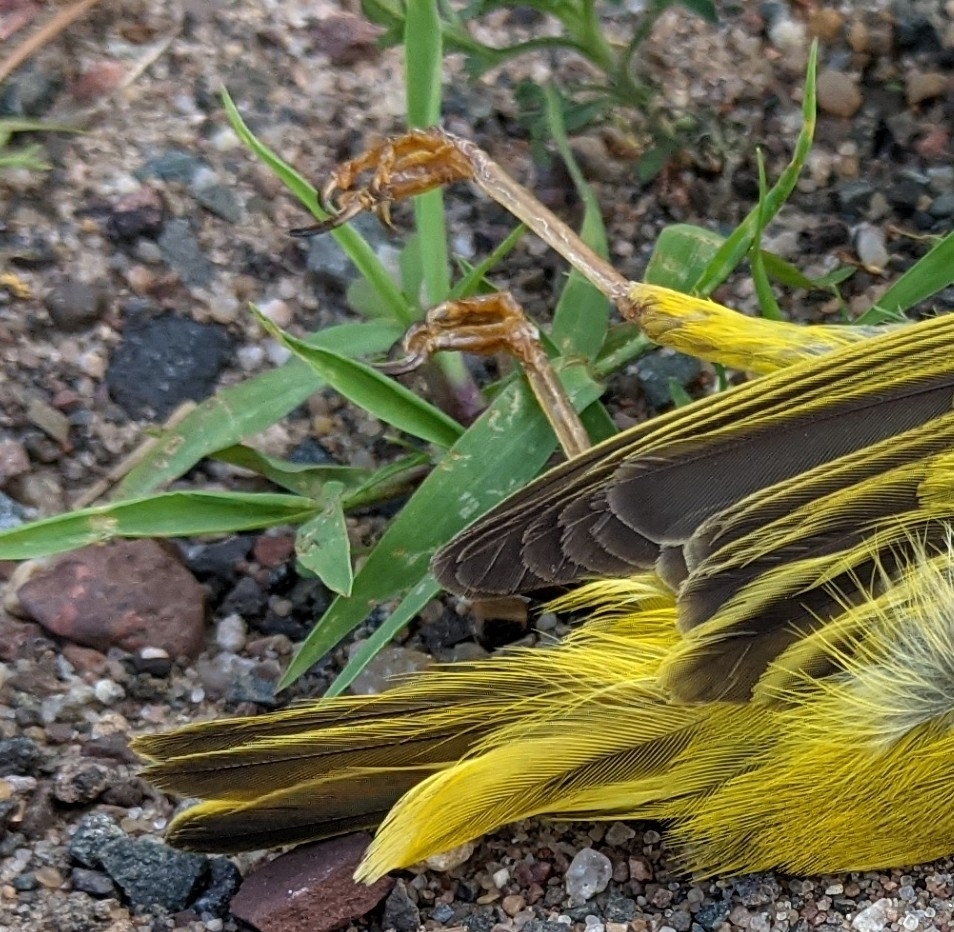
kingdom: Animalia
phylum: Chordata
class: Aves
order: Passeriformes
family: Parulidae
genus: Setophaga
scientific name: Setophaga petechia
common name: Yellow warbler
